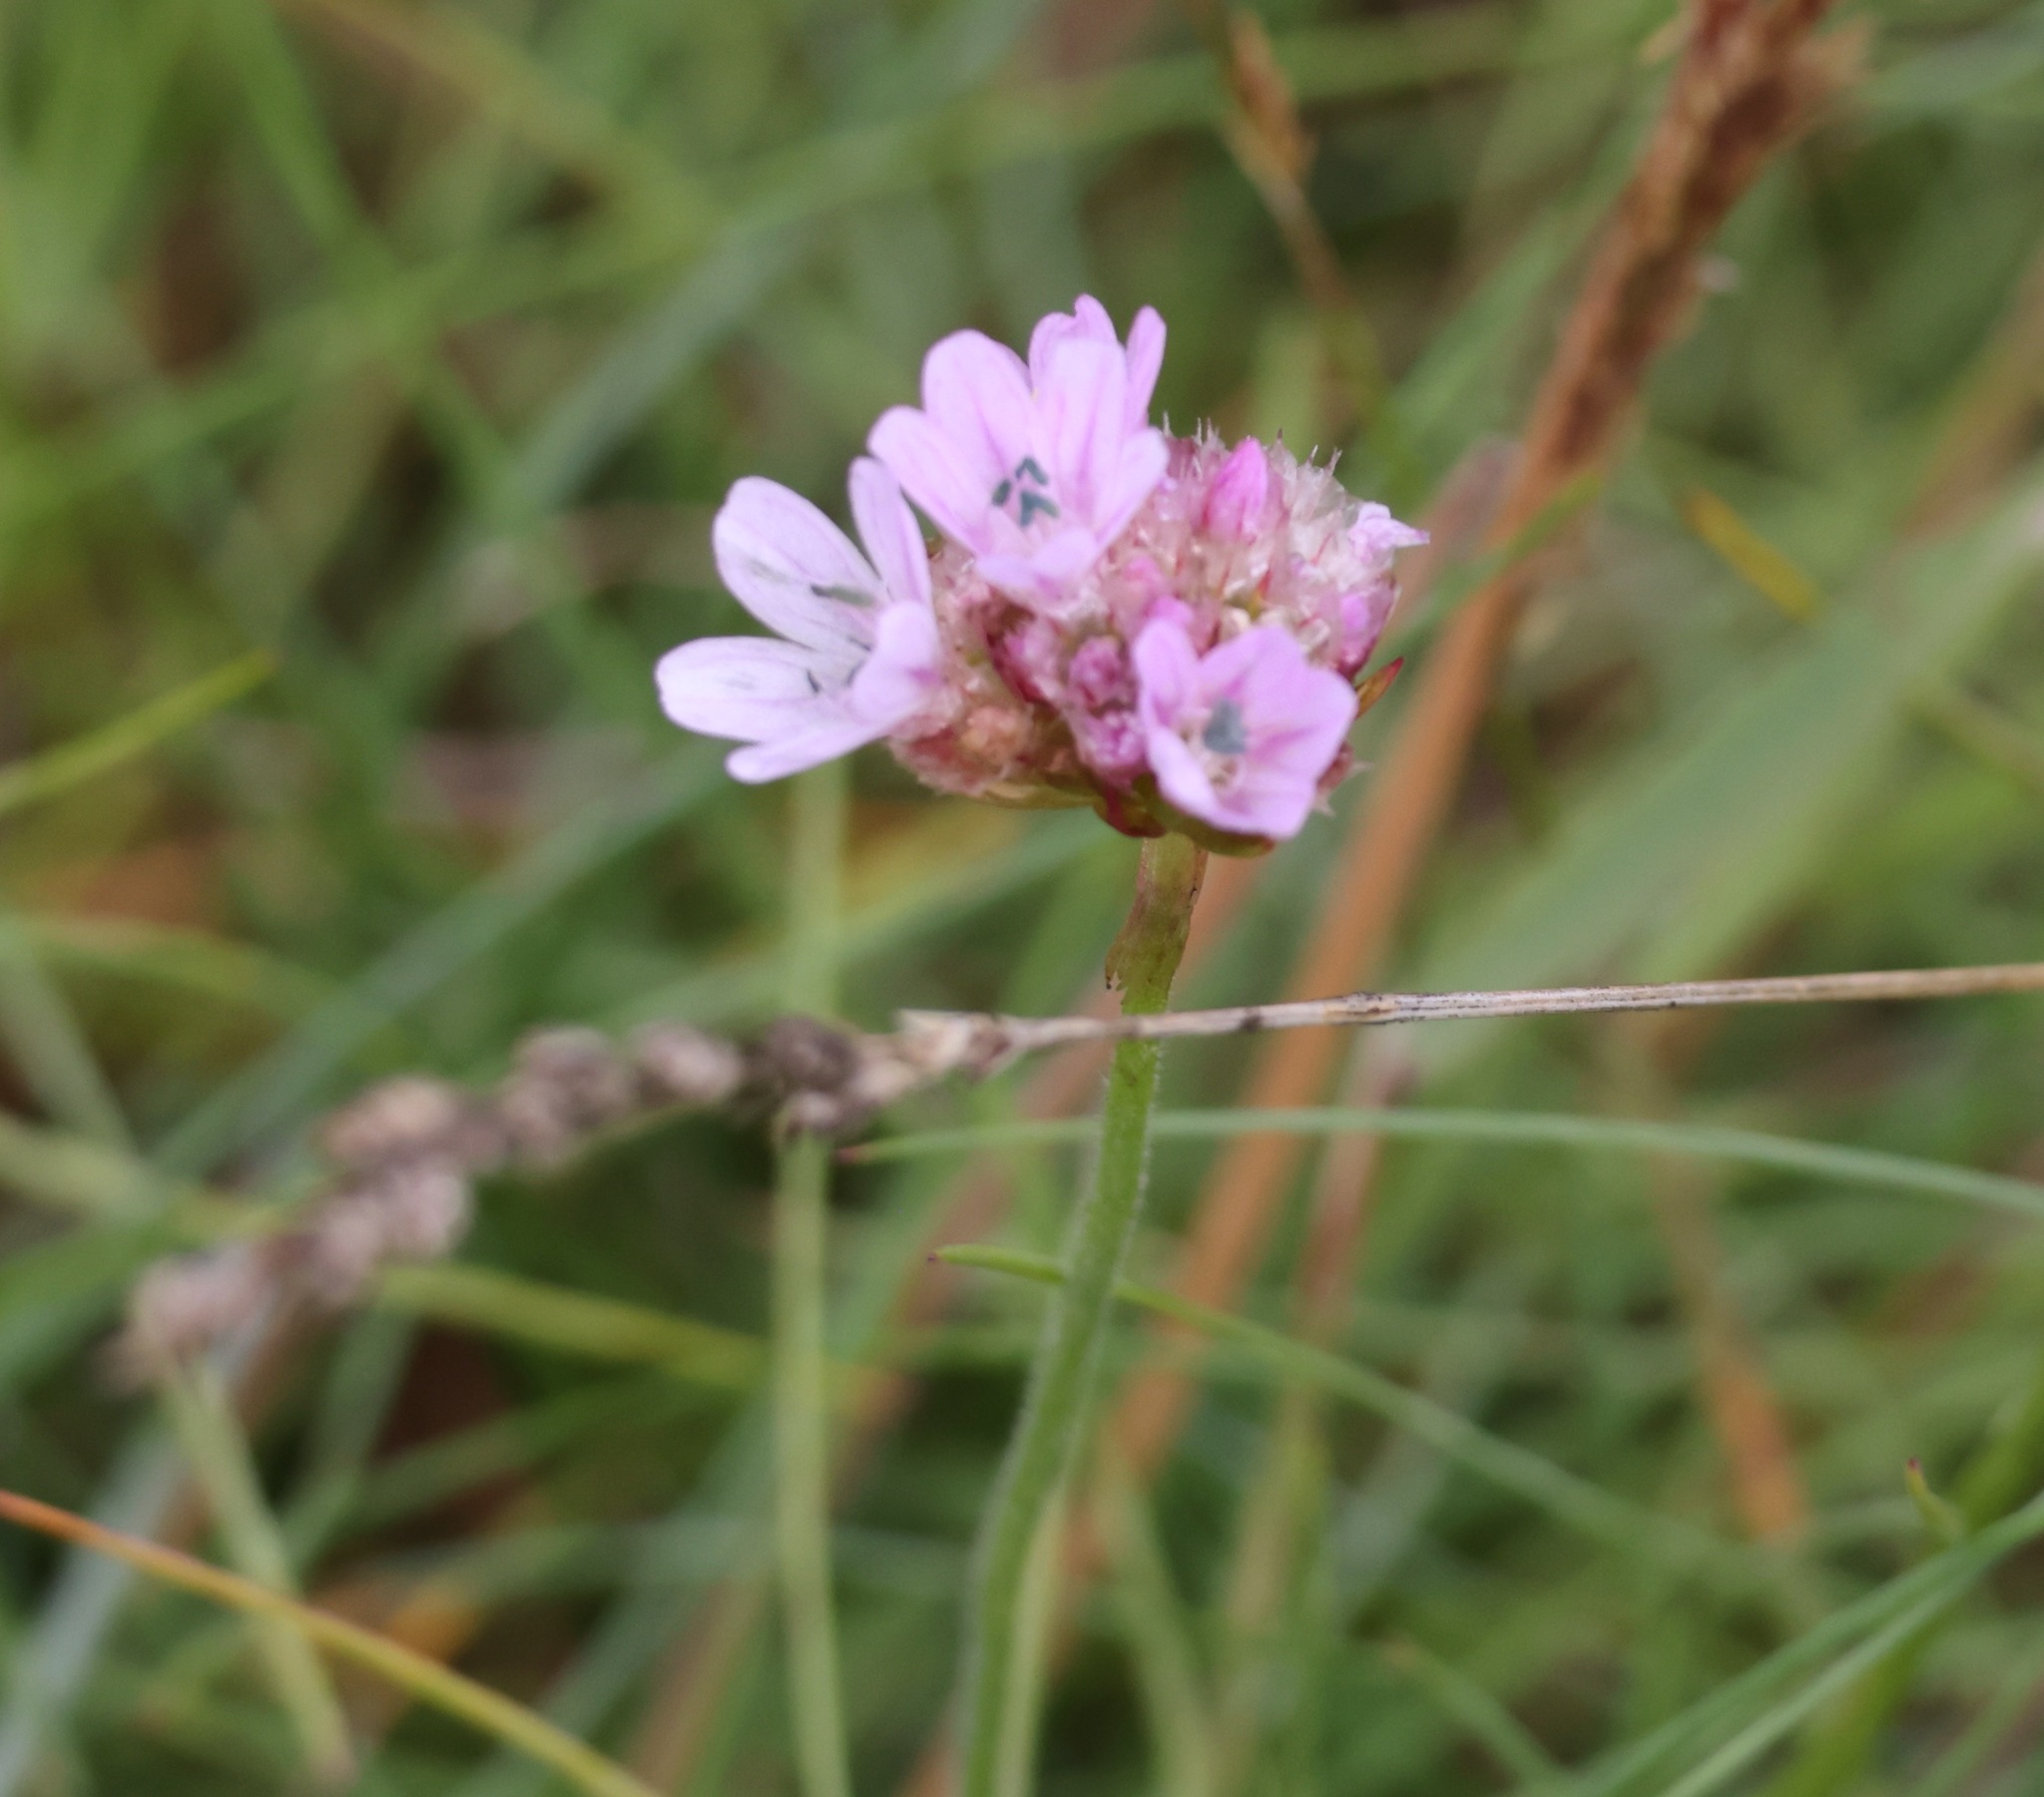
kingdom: Plantae
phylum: Tracheophyta
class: Magnoliopsida
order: Caryophyllales
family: Plumbaginaceae
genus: Armeria
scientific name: Armeria maritima
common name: Thrift
